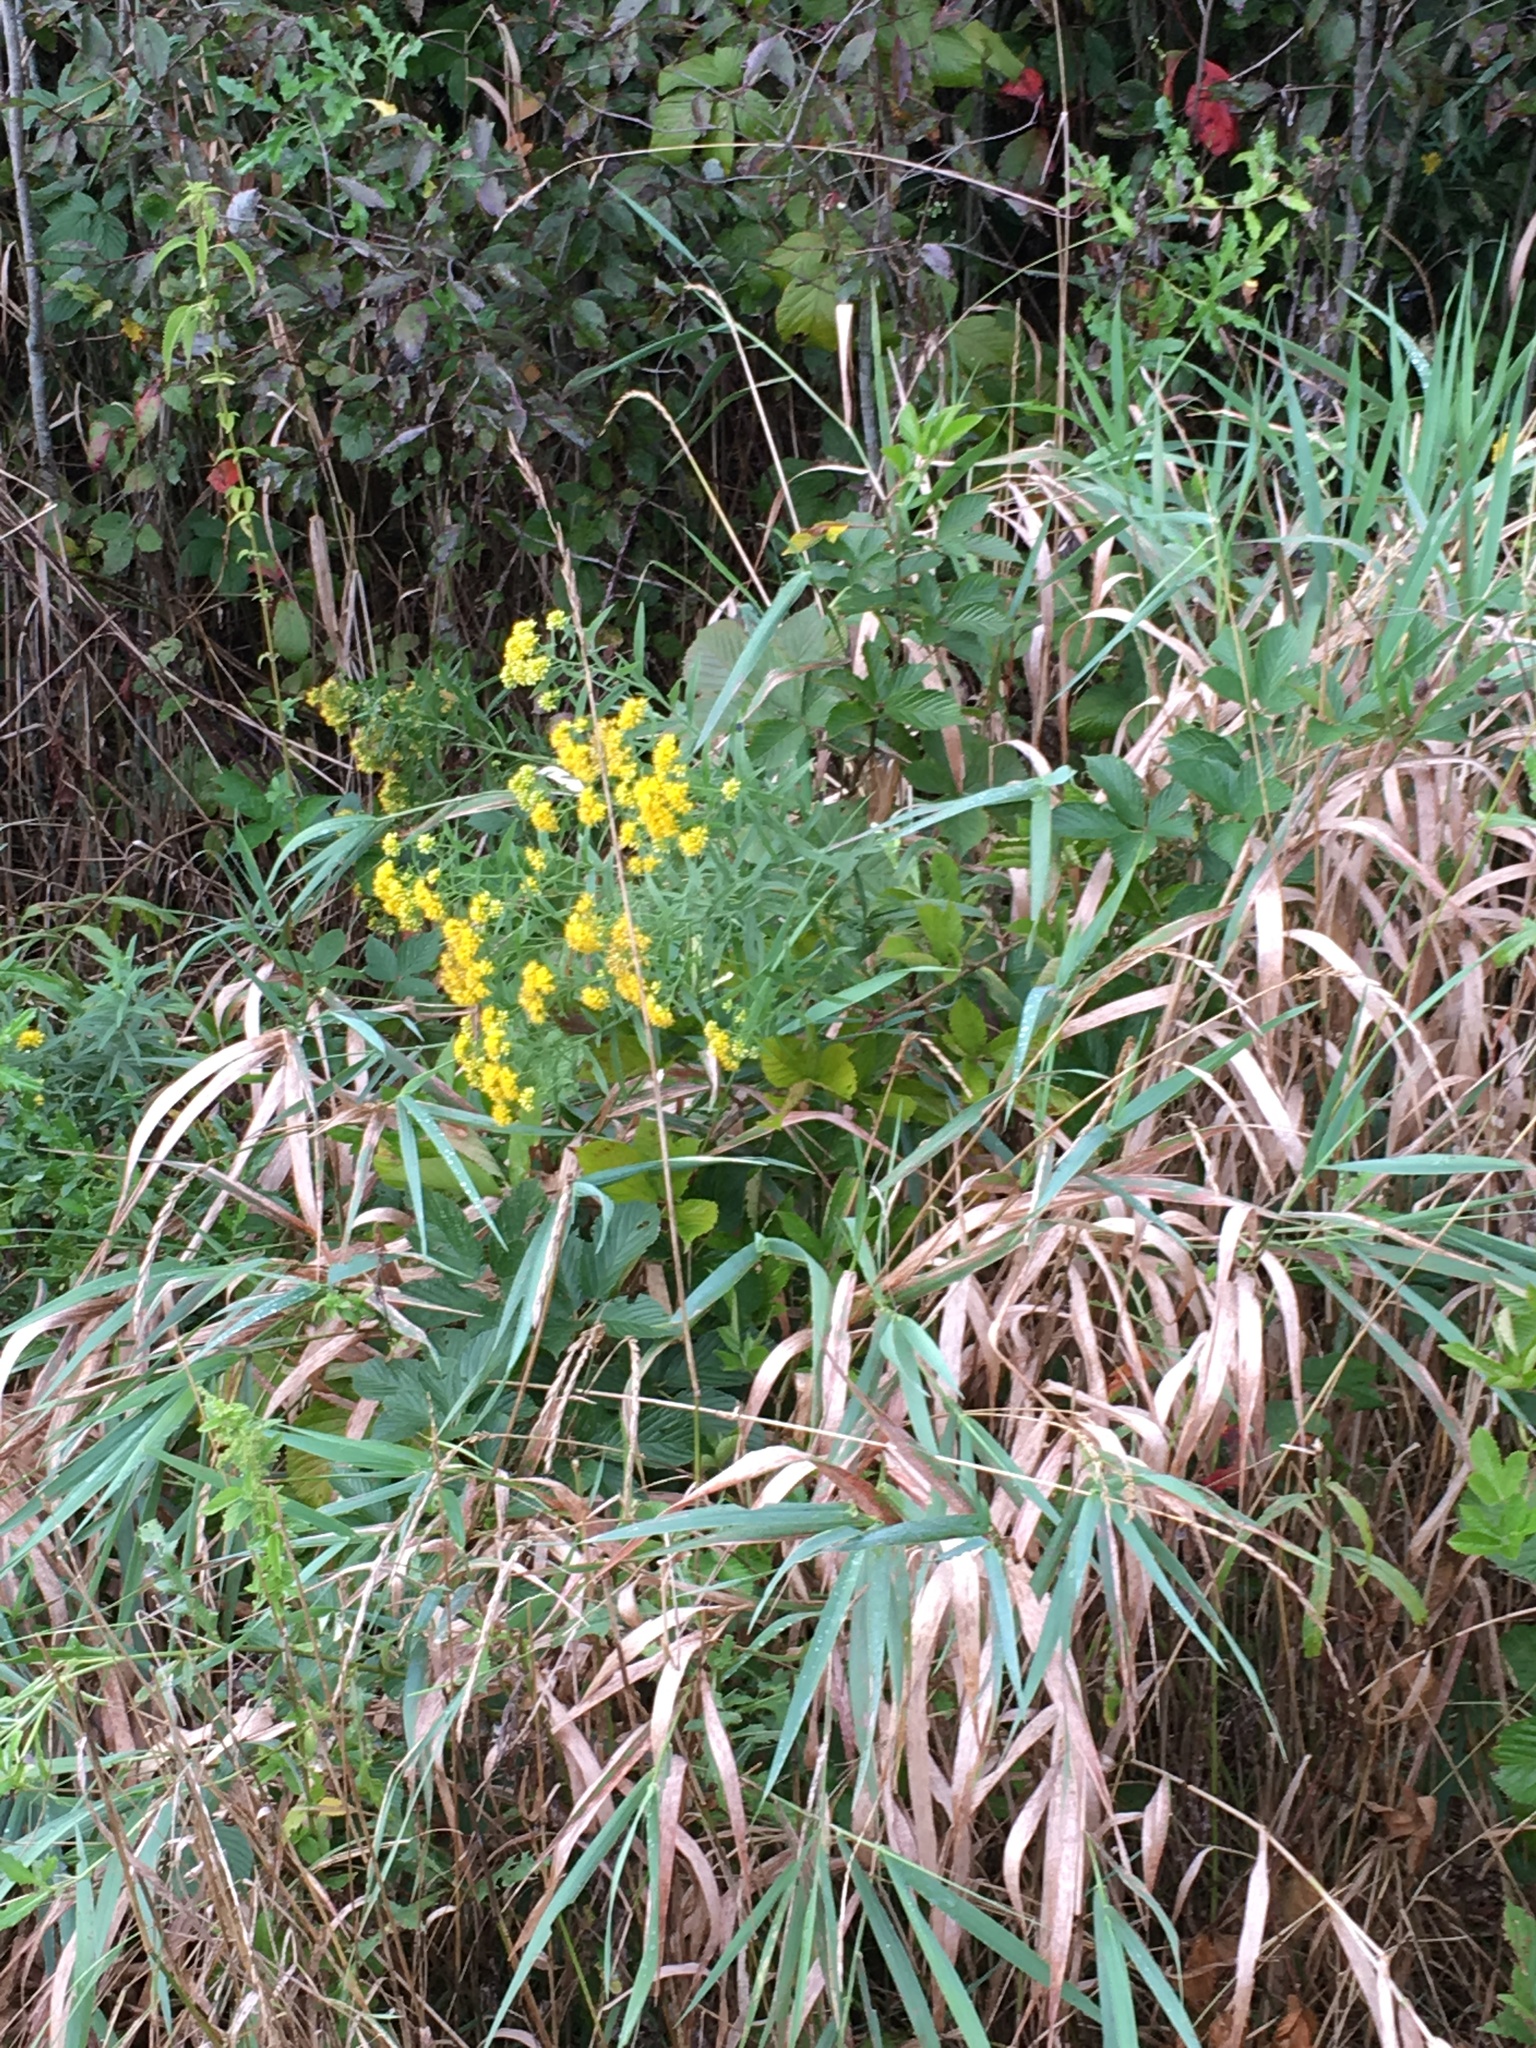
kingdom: Plantae
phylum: Tracheophyta
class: Magnoliopsida
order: Asterales
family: Asteraceae
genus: Euthamia
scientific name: Euthamia graminifolia
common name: Common goldentop
